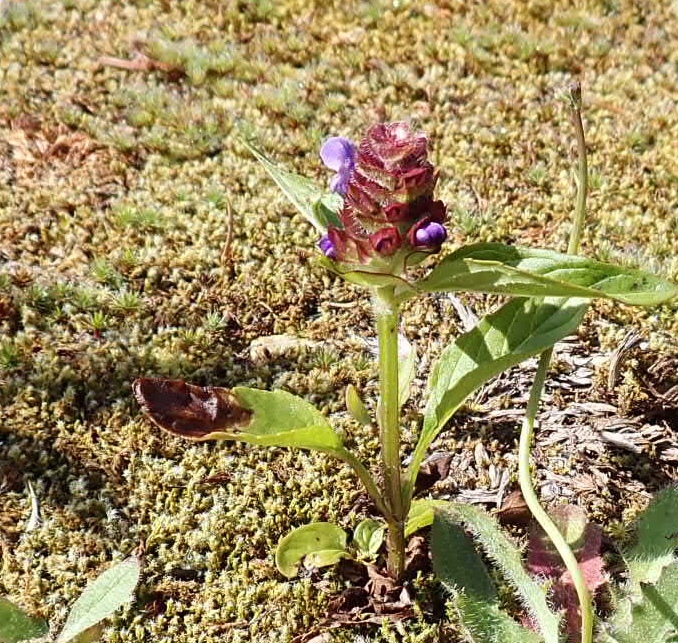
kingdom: Plantae
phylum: Tracheophyta
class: Magnoliopsida
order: Lamiales
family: Lamiaceae
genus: Prunella
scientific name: Prunella vulgaris
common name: Heal-all
